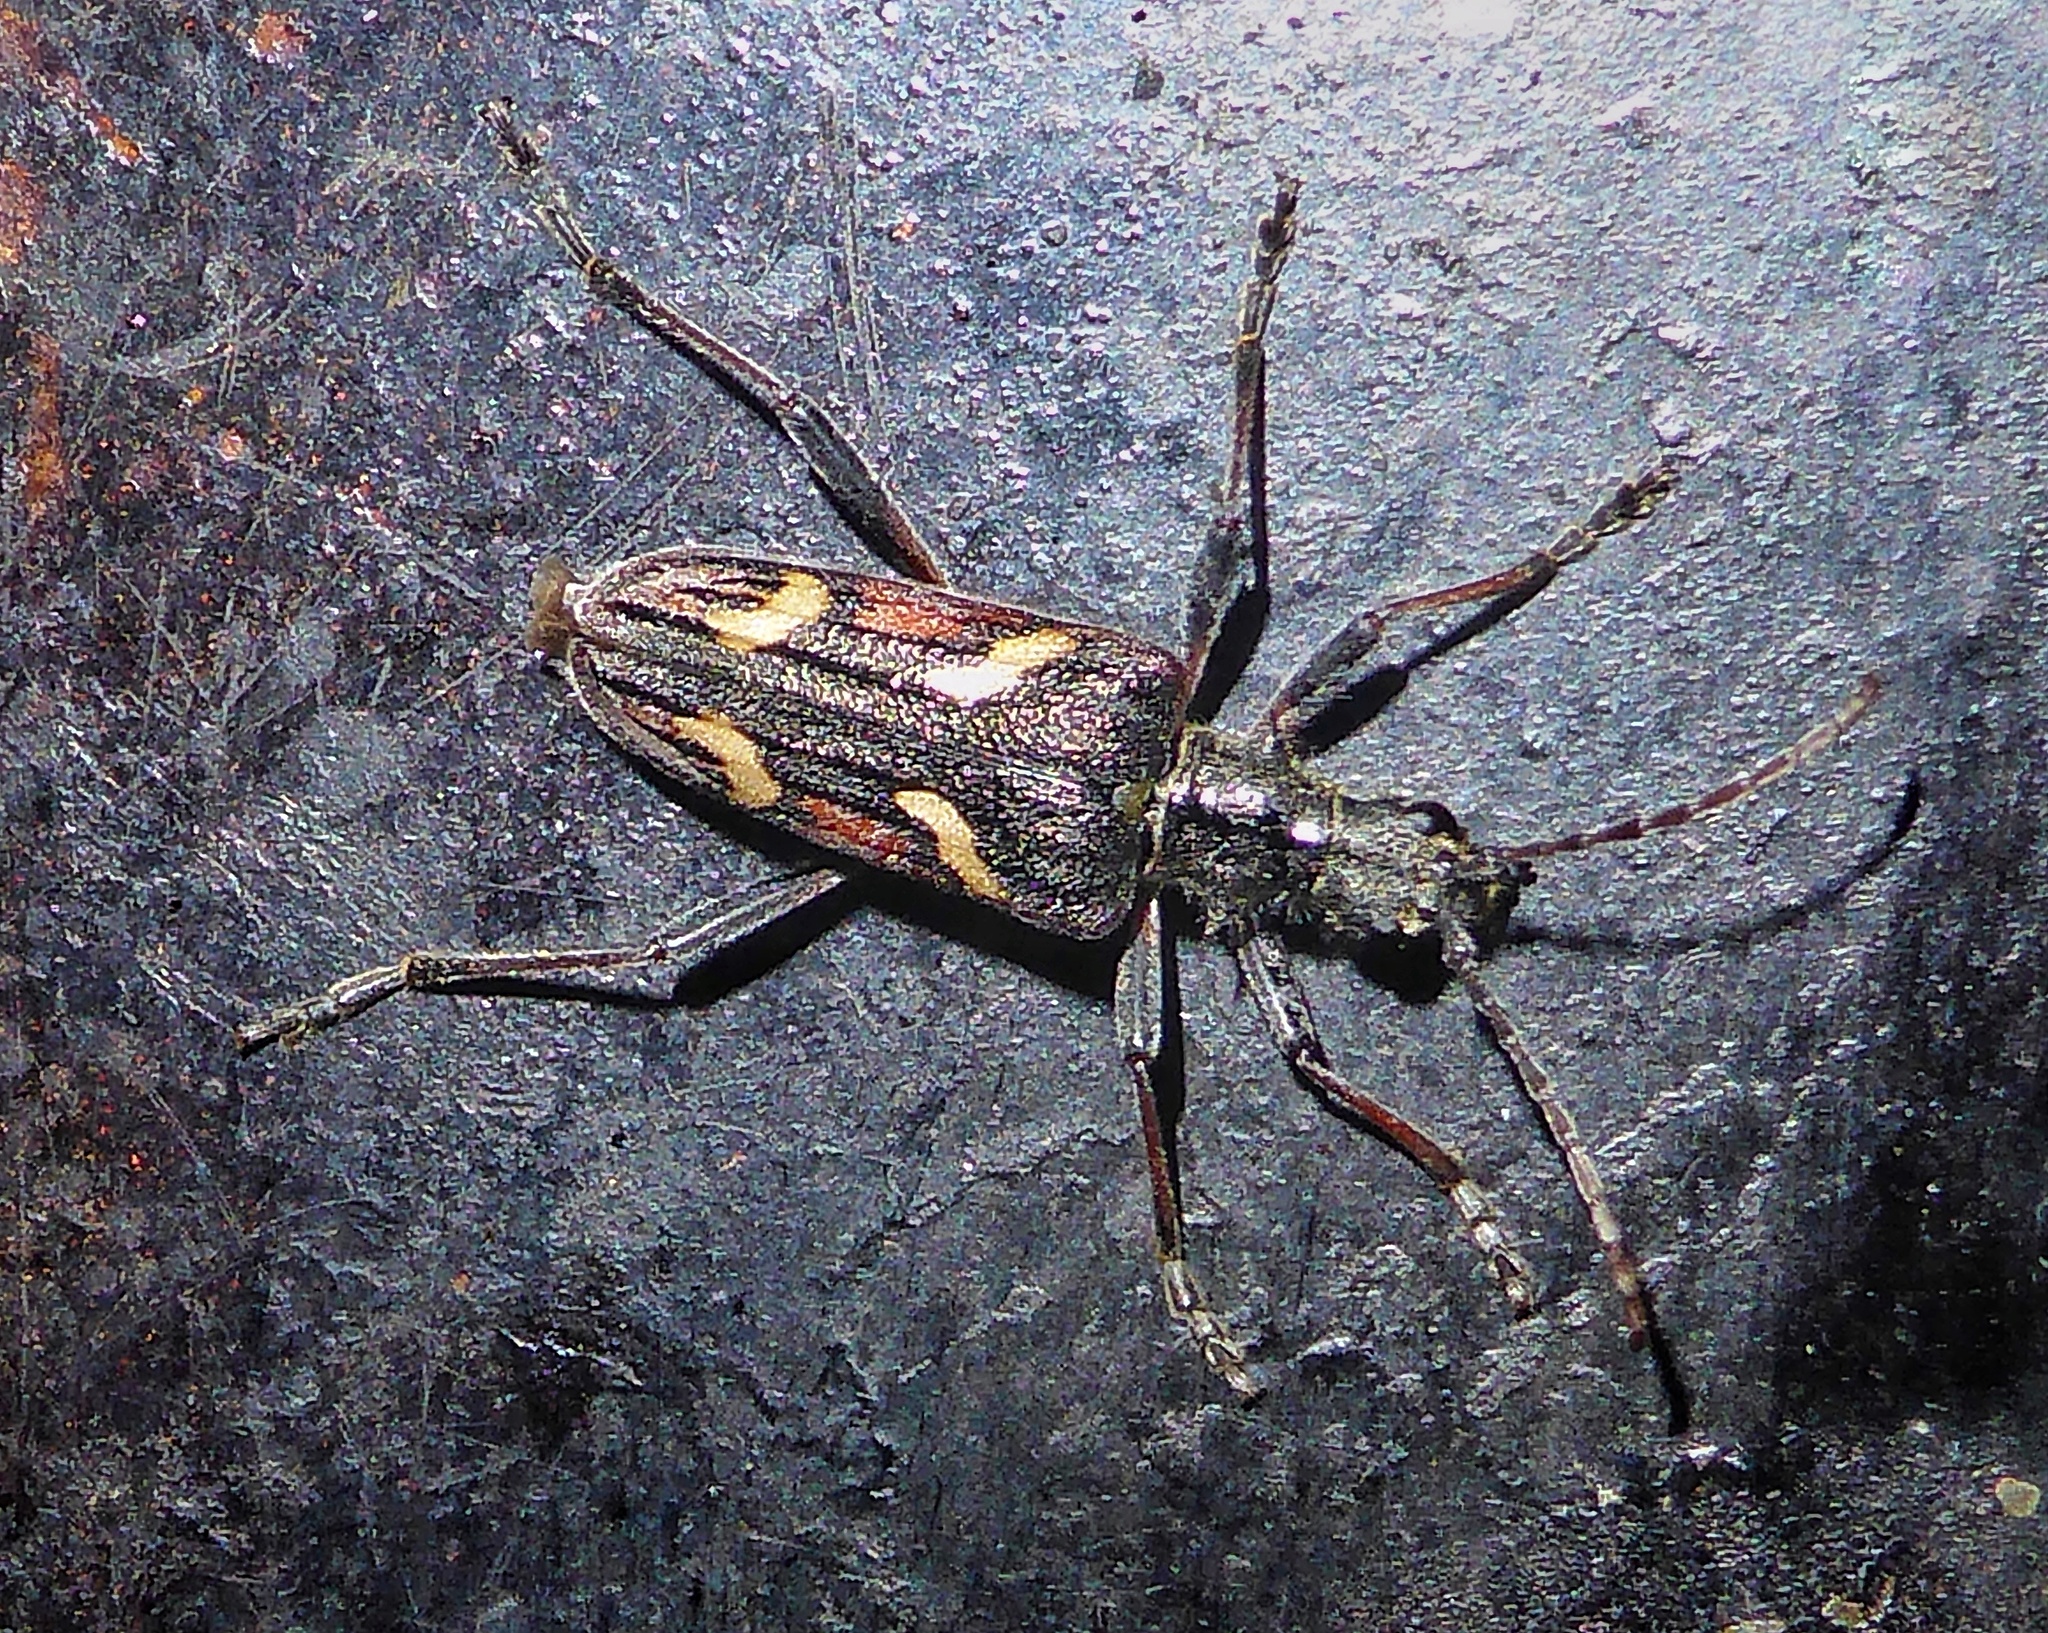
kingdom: Animalia
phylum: Arthropoda
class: Insecta
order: Coleoptera
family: Cerambycidae
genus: Rhagium
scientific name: Rhagium bifasciatum
